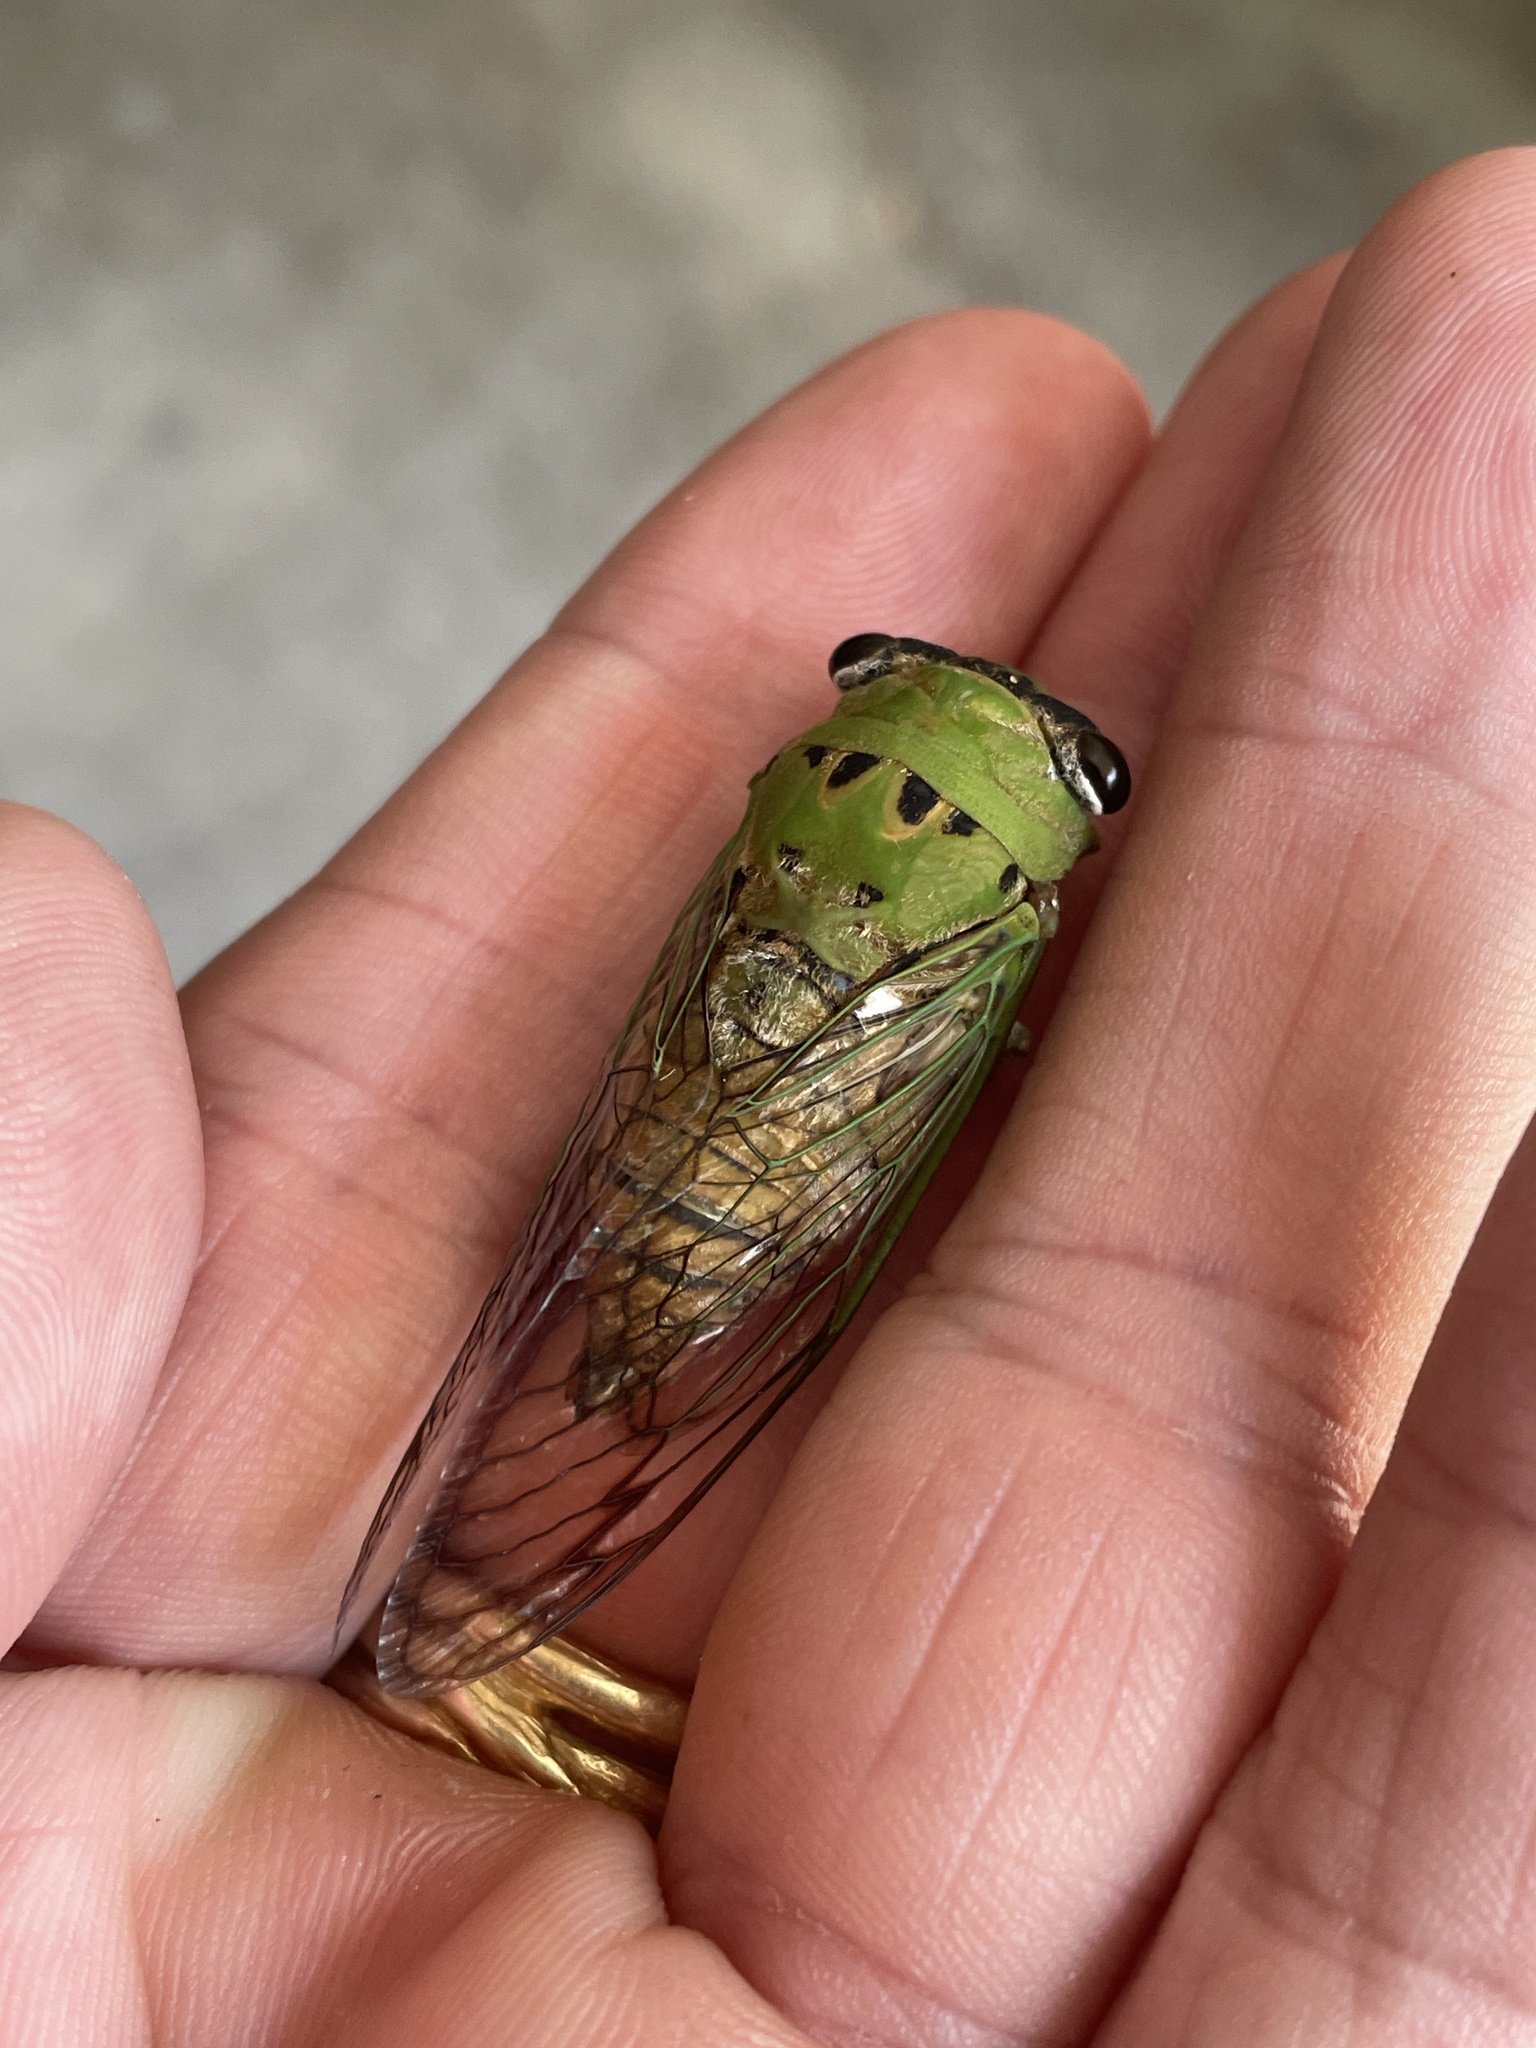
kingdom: Animalia
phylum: Arthropoda
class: Insecta
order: Hemiptera
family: Cicadidae
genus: Neotibicen
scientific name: Neotibicen superbus
